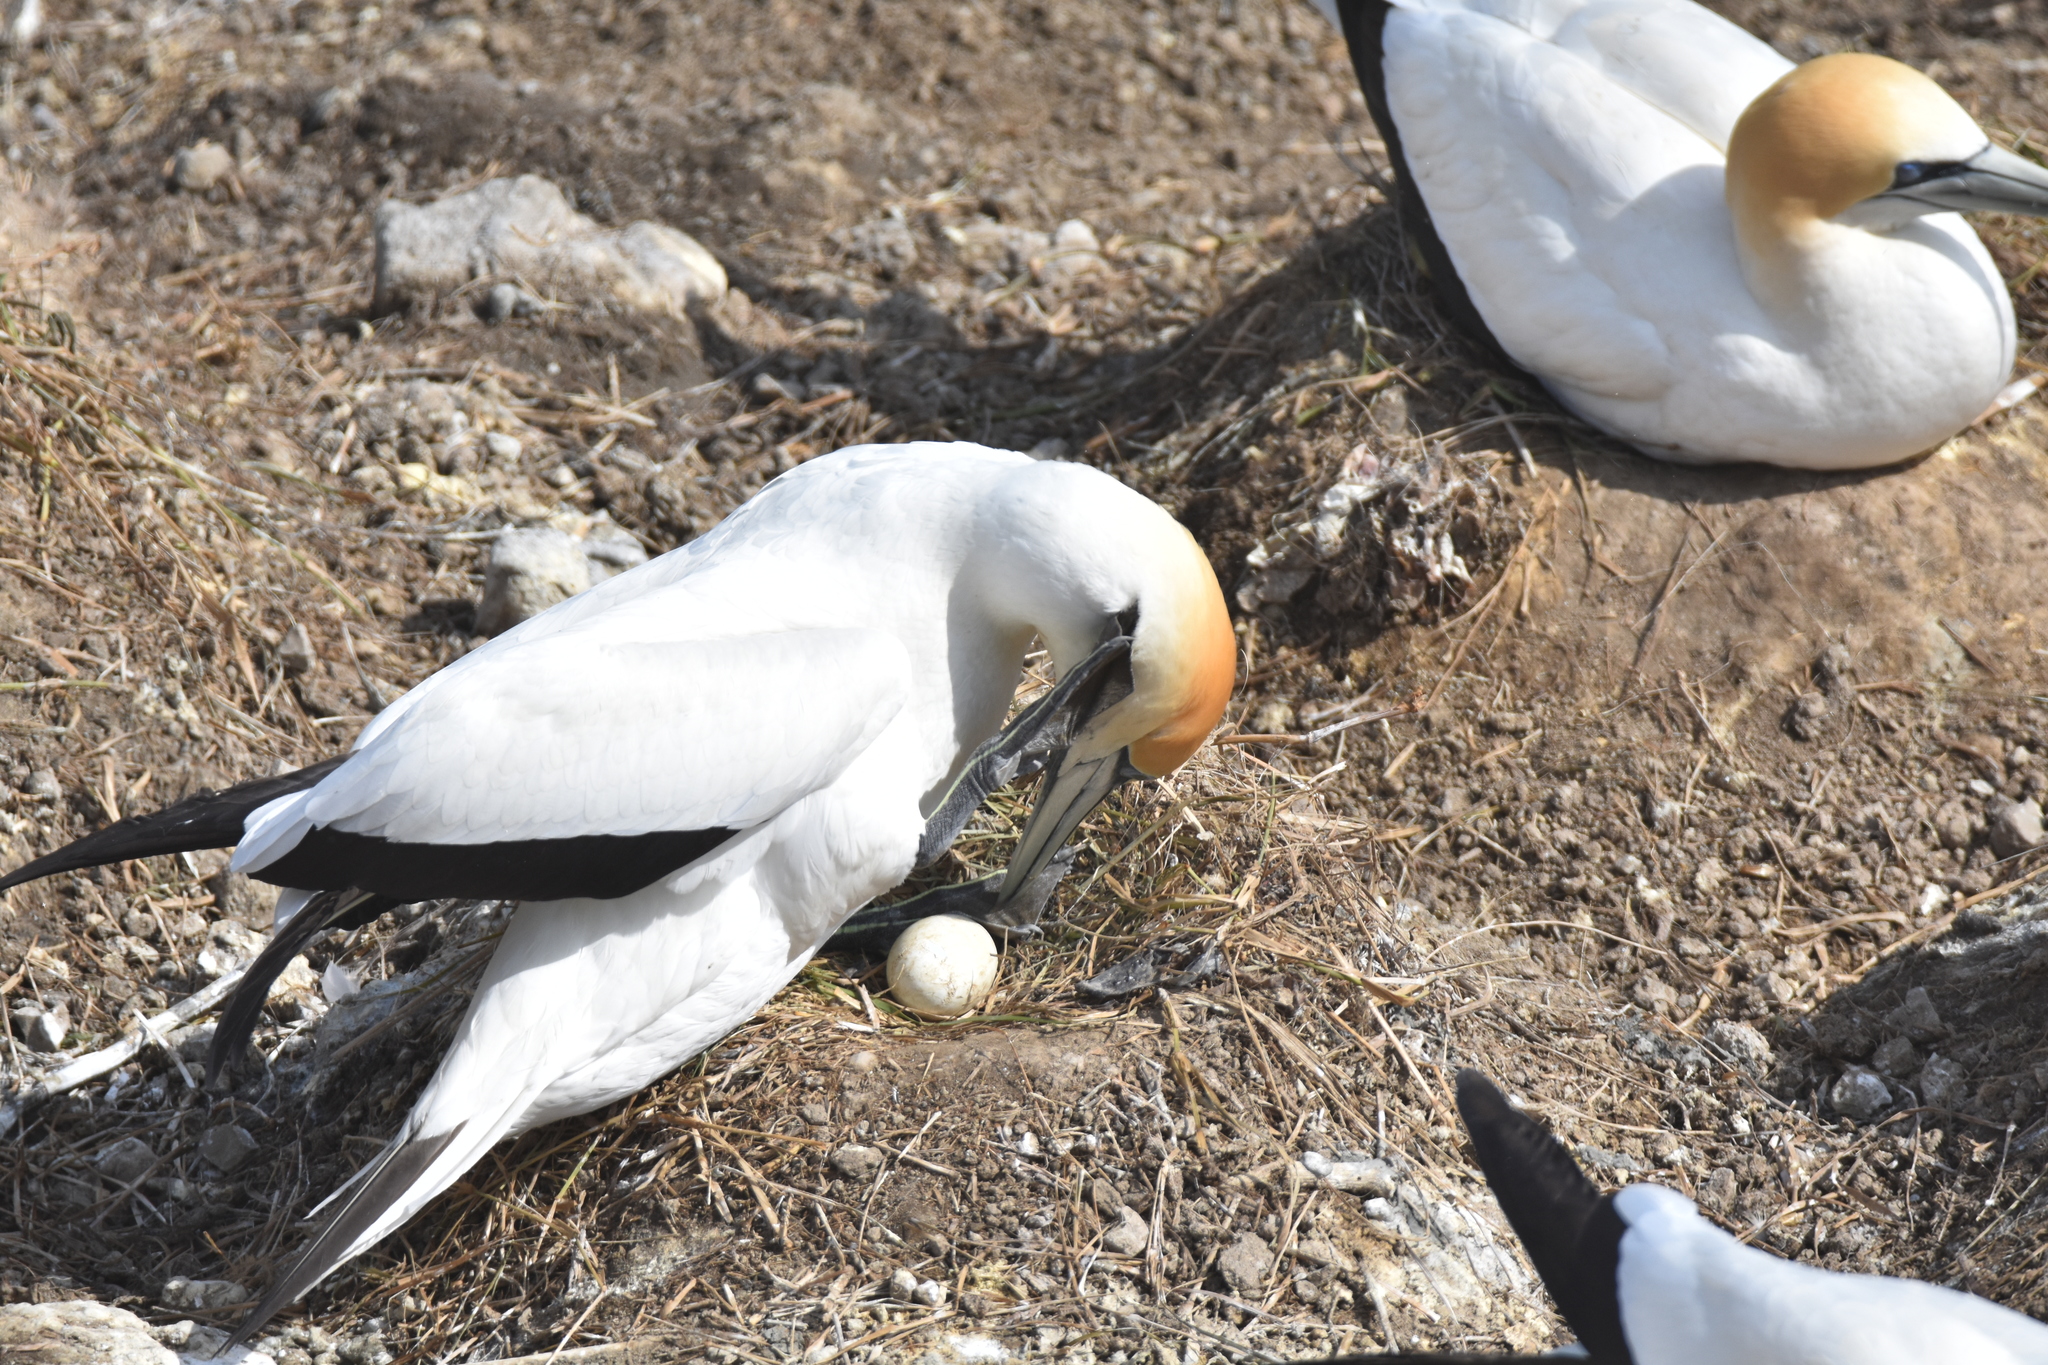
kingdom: Animalia
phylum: Chordata
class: Aves
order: Suliformes
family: Sulidae
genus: Morus
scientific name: Morus serrator
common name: Australasian gannet
